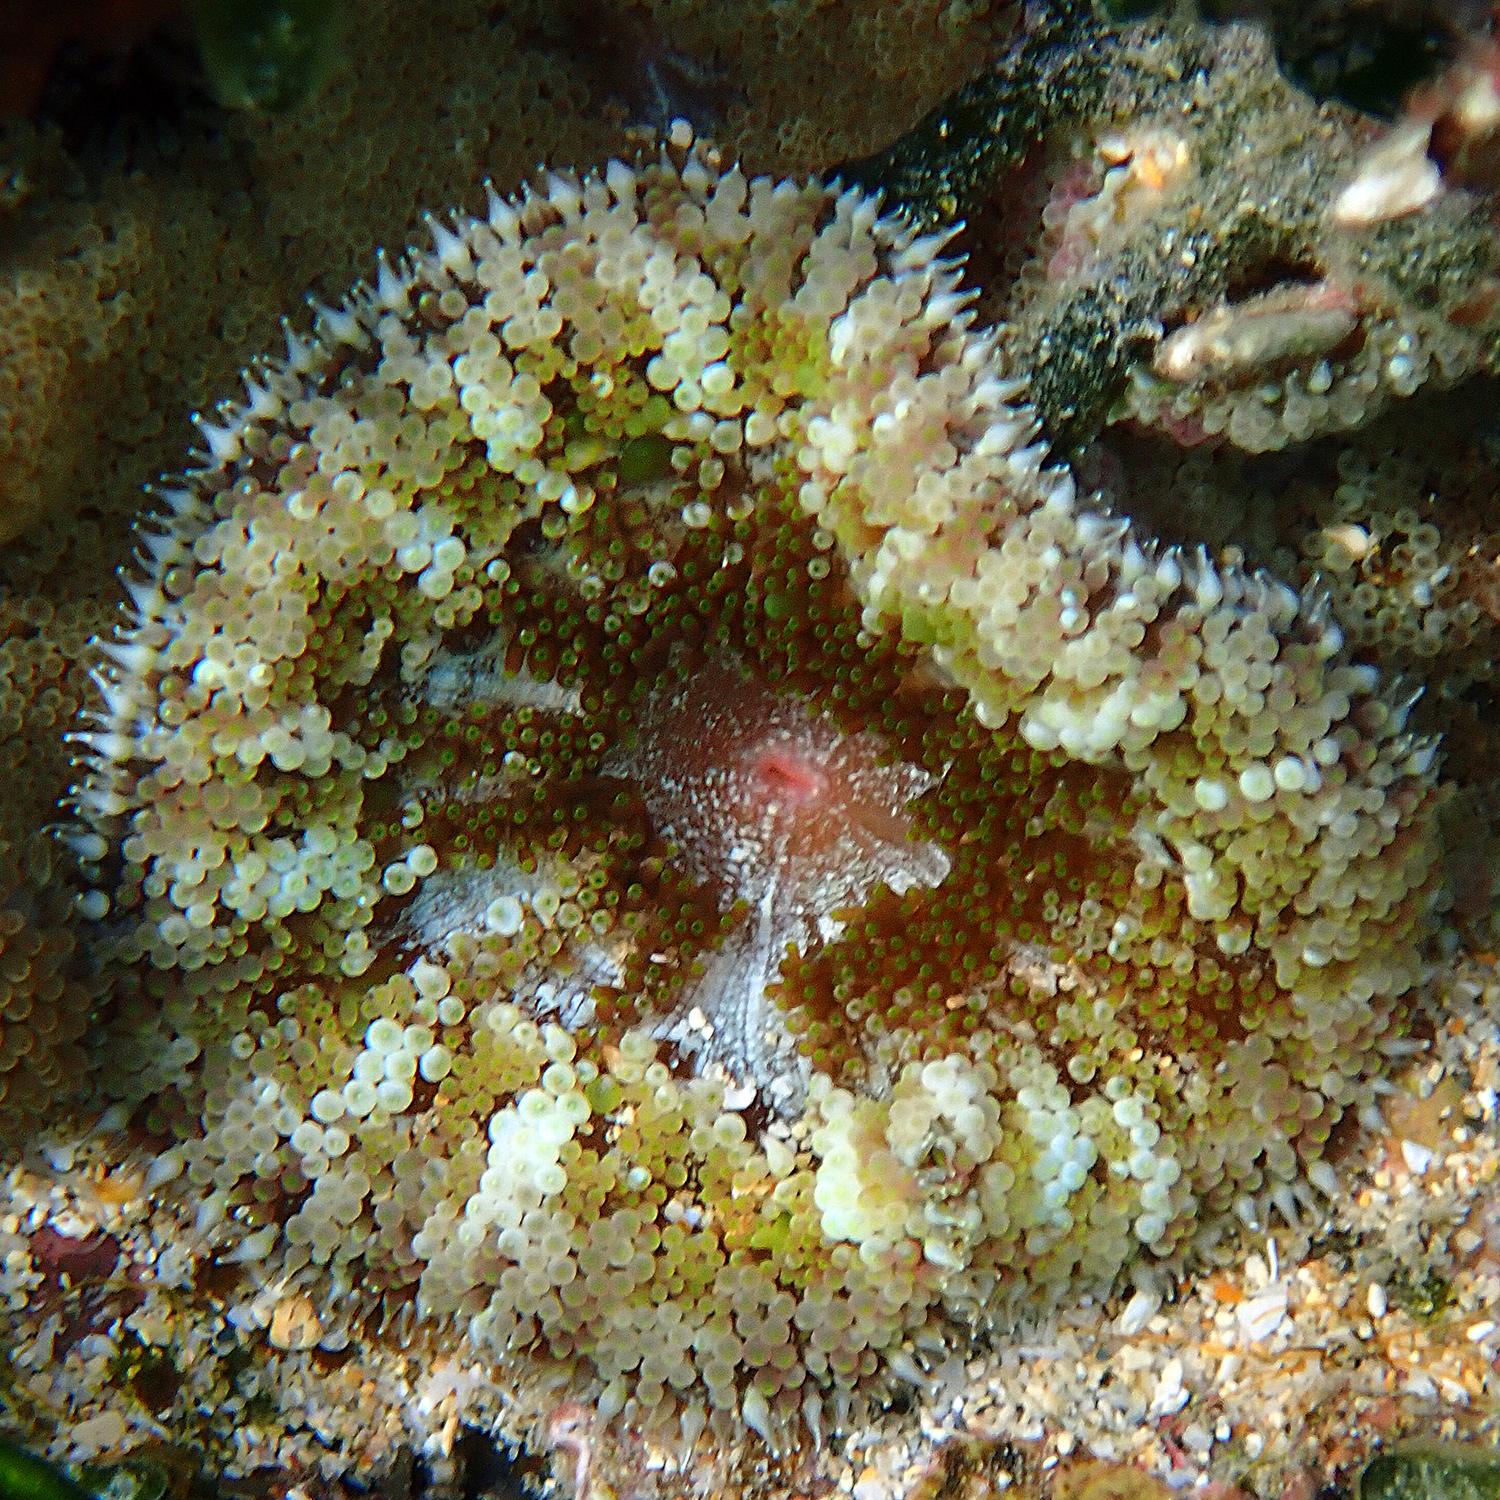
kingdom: Animalia
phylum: Cnidaria
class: Anthozoa
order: Actiniaria
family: Stichodactylidae
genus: Stichodactyla
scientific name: Stichodactyla tapetum
